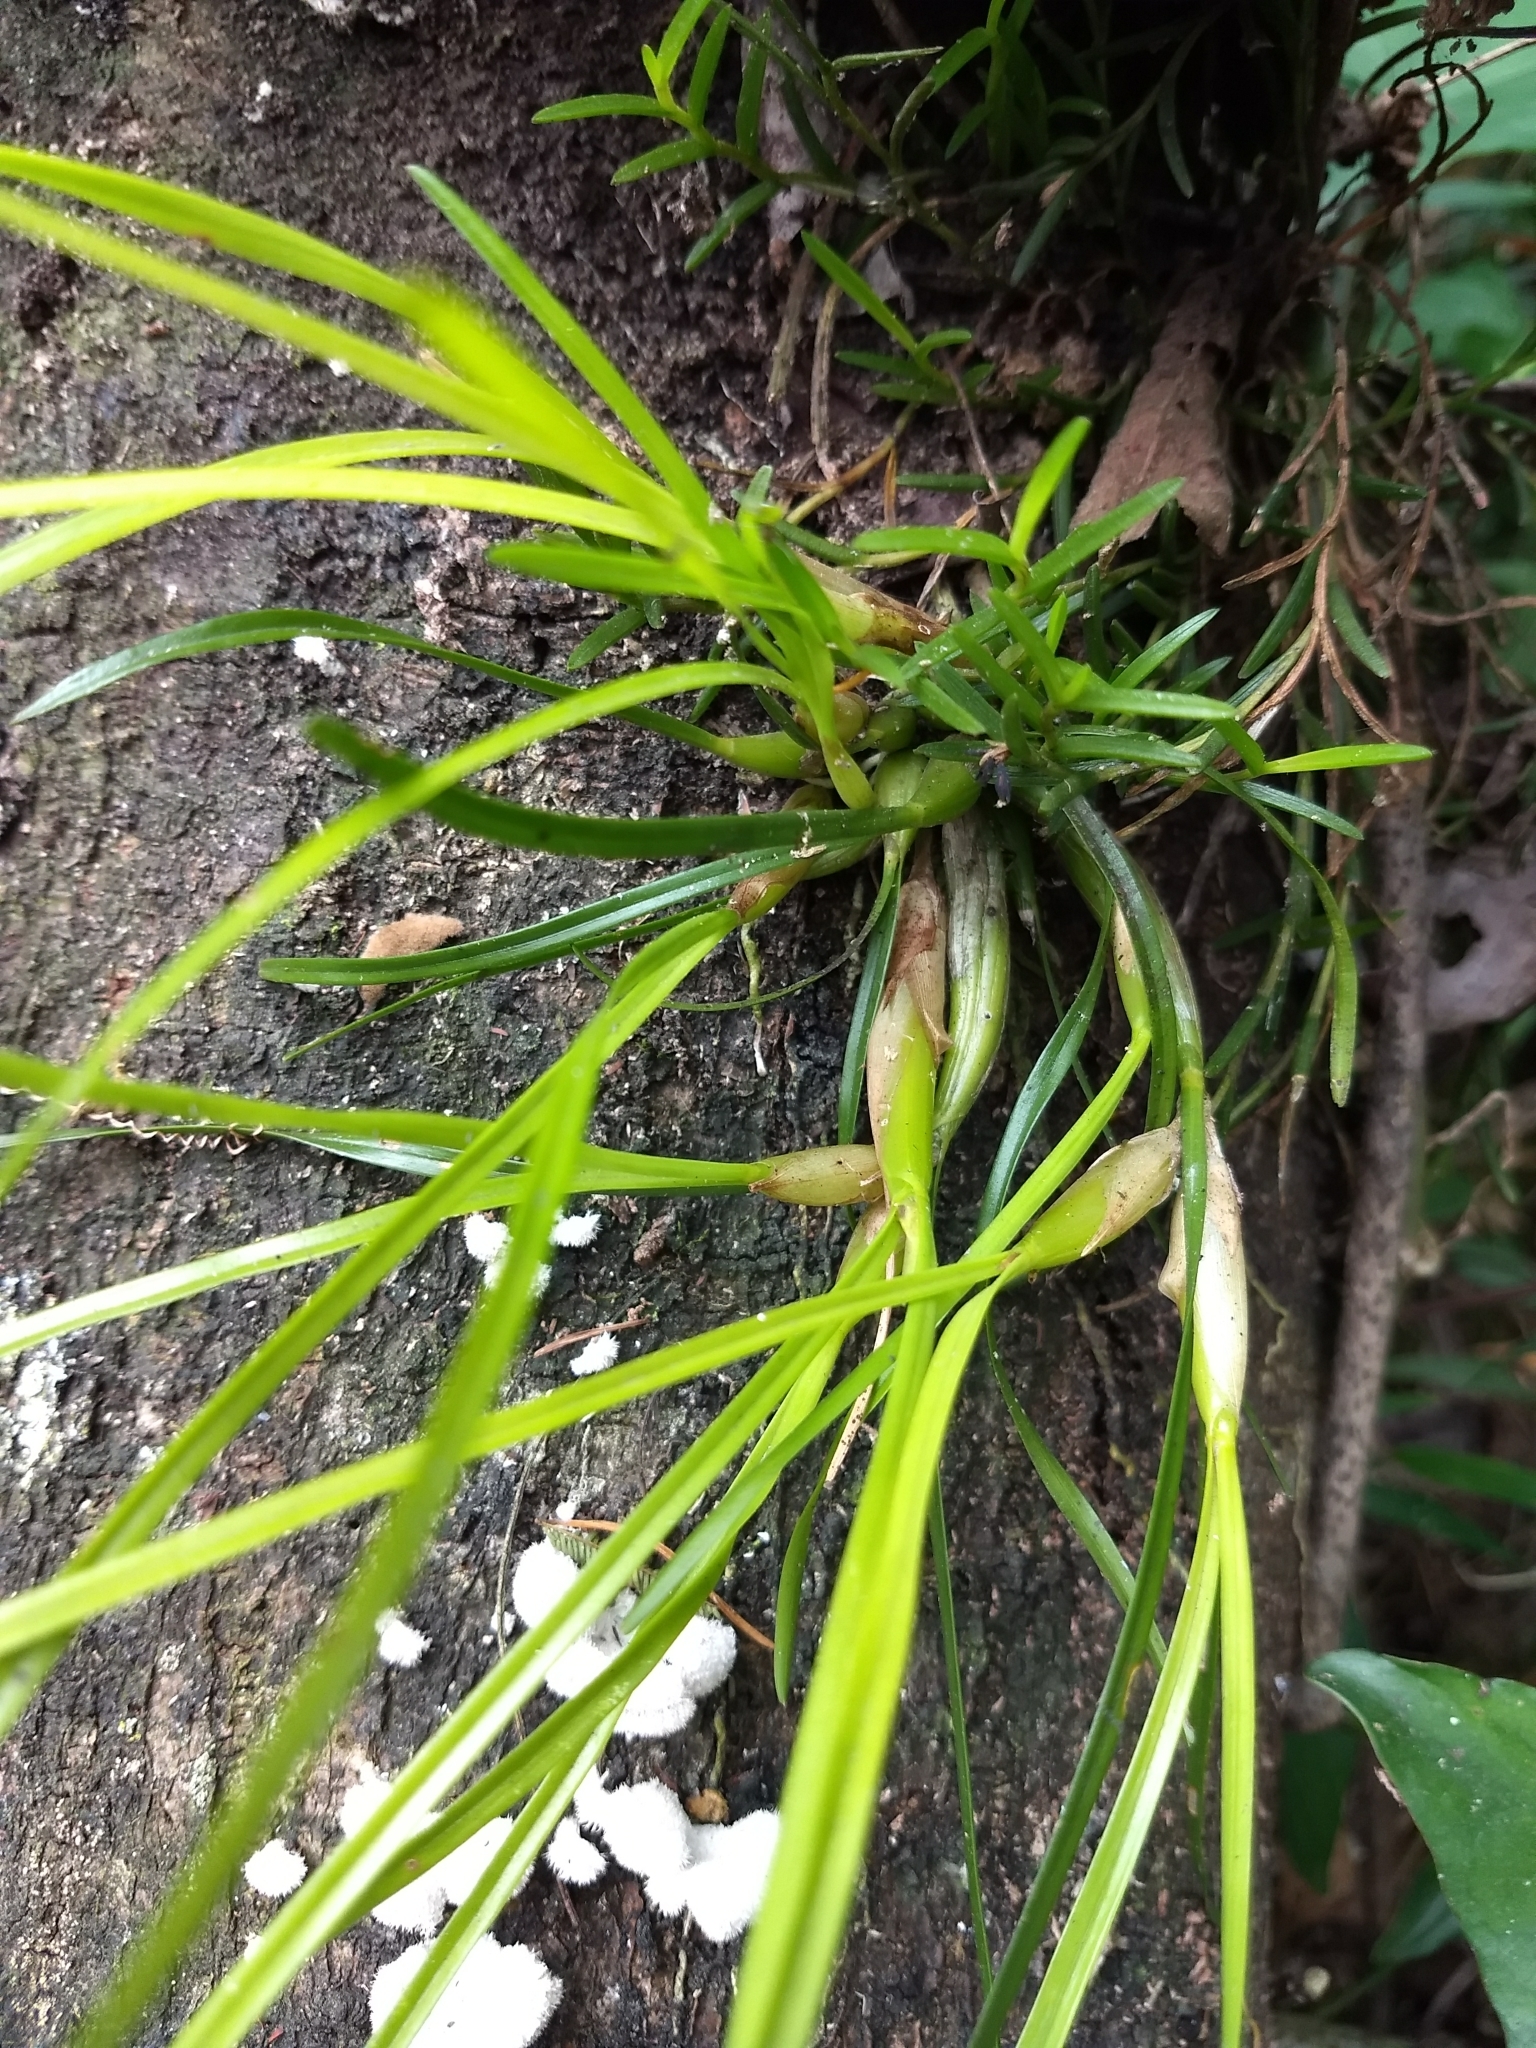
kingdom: Plantae
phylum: Tracheophyta
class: Liliopsida
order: Asparagales
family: Orchidaceae
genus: Scaphyglottis
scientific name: Scaphyglottis fasciculata
